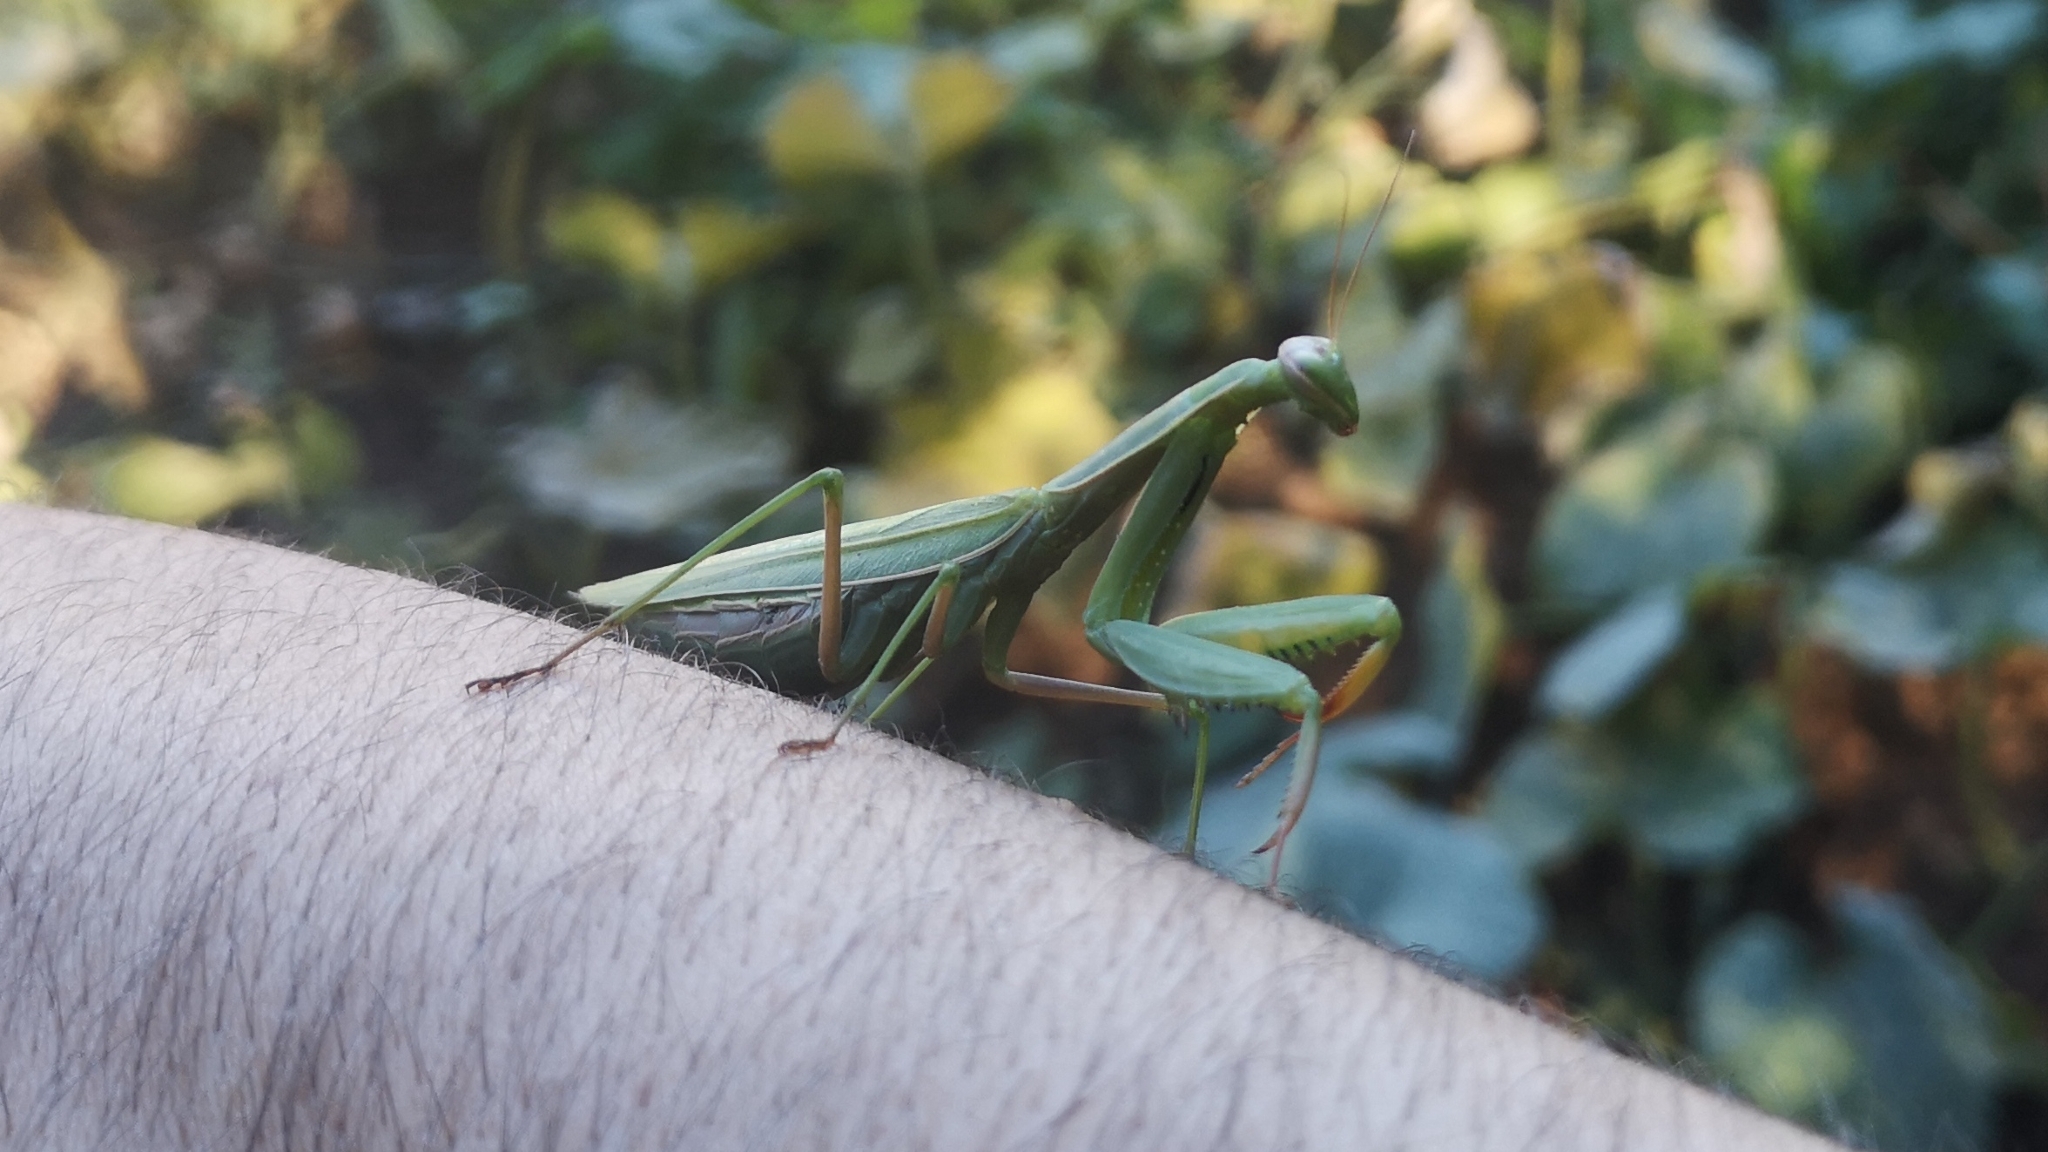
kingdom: Animalia
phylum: Arthropoda
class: Insecta
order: Mantodea
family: Mantidae
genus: Mantis
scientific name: Mantis religiosa
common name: Praying mantis
